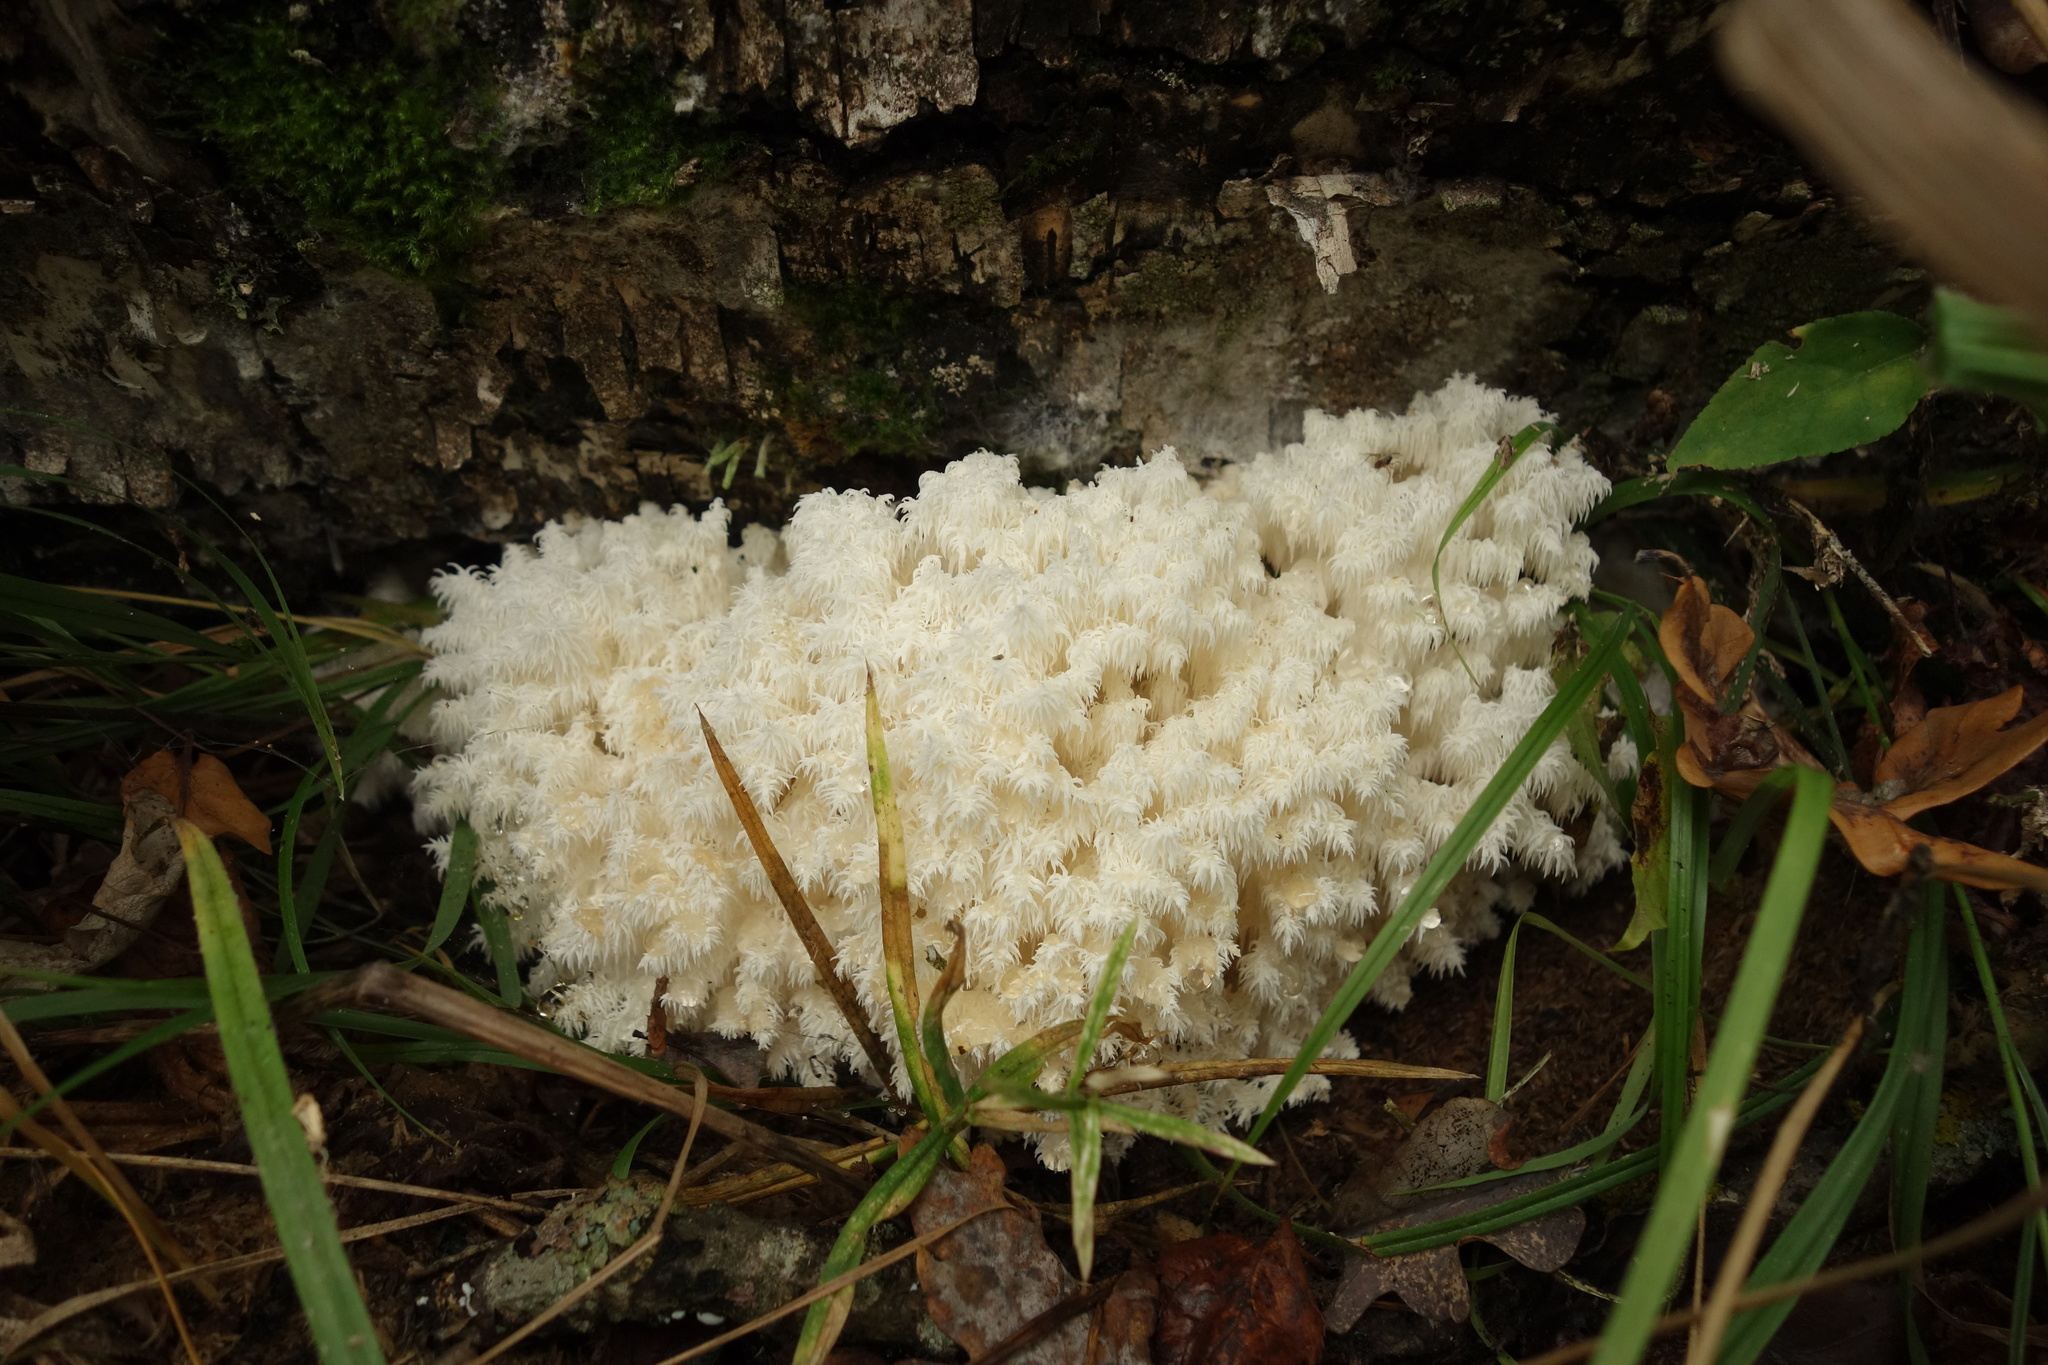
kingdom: Fungi
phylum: Basidiomycota
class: Agaricomycetes
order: Russulales
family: Hericiaceae
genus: Hericium
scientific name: Hericium coralloides
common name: Coral tooth
